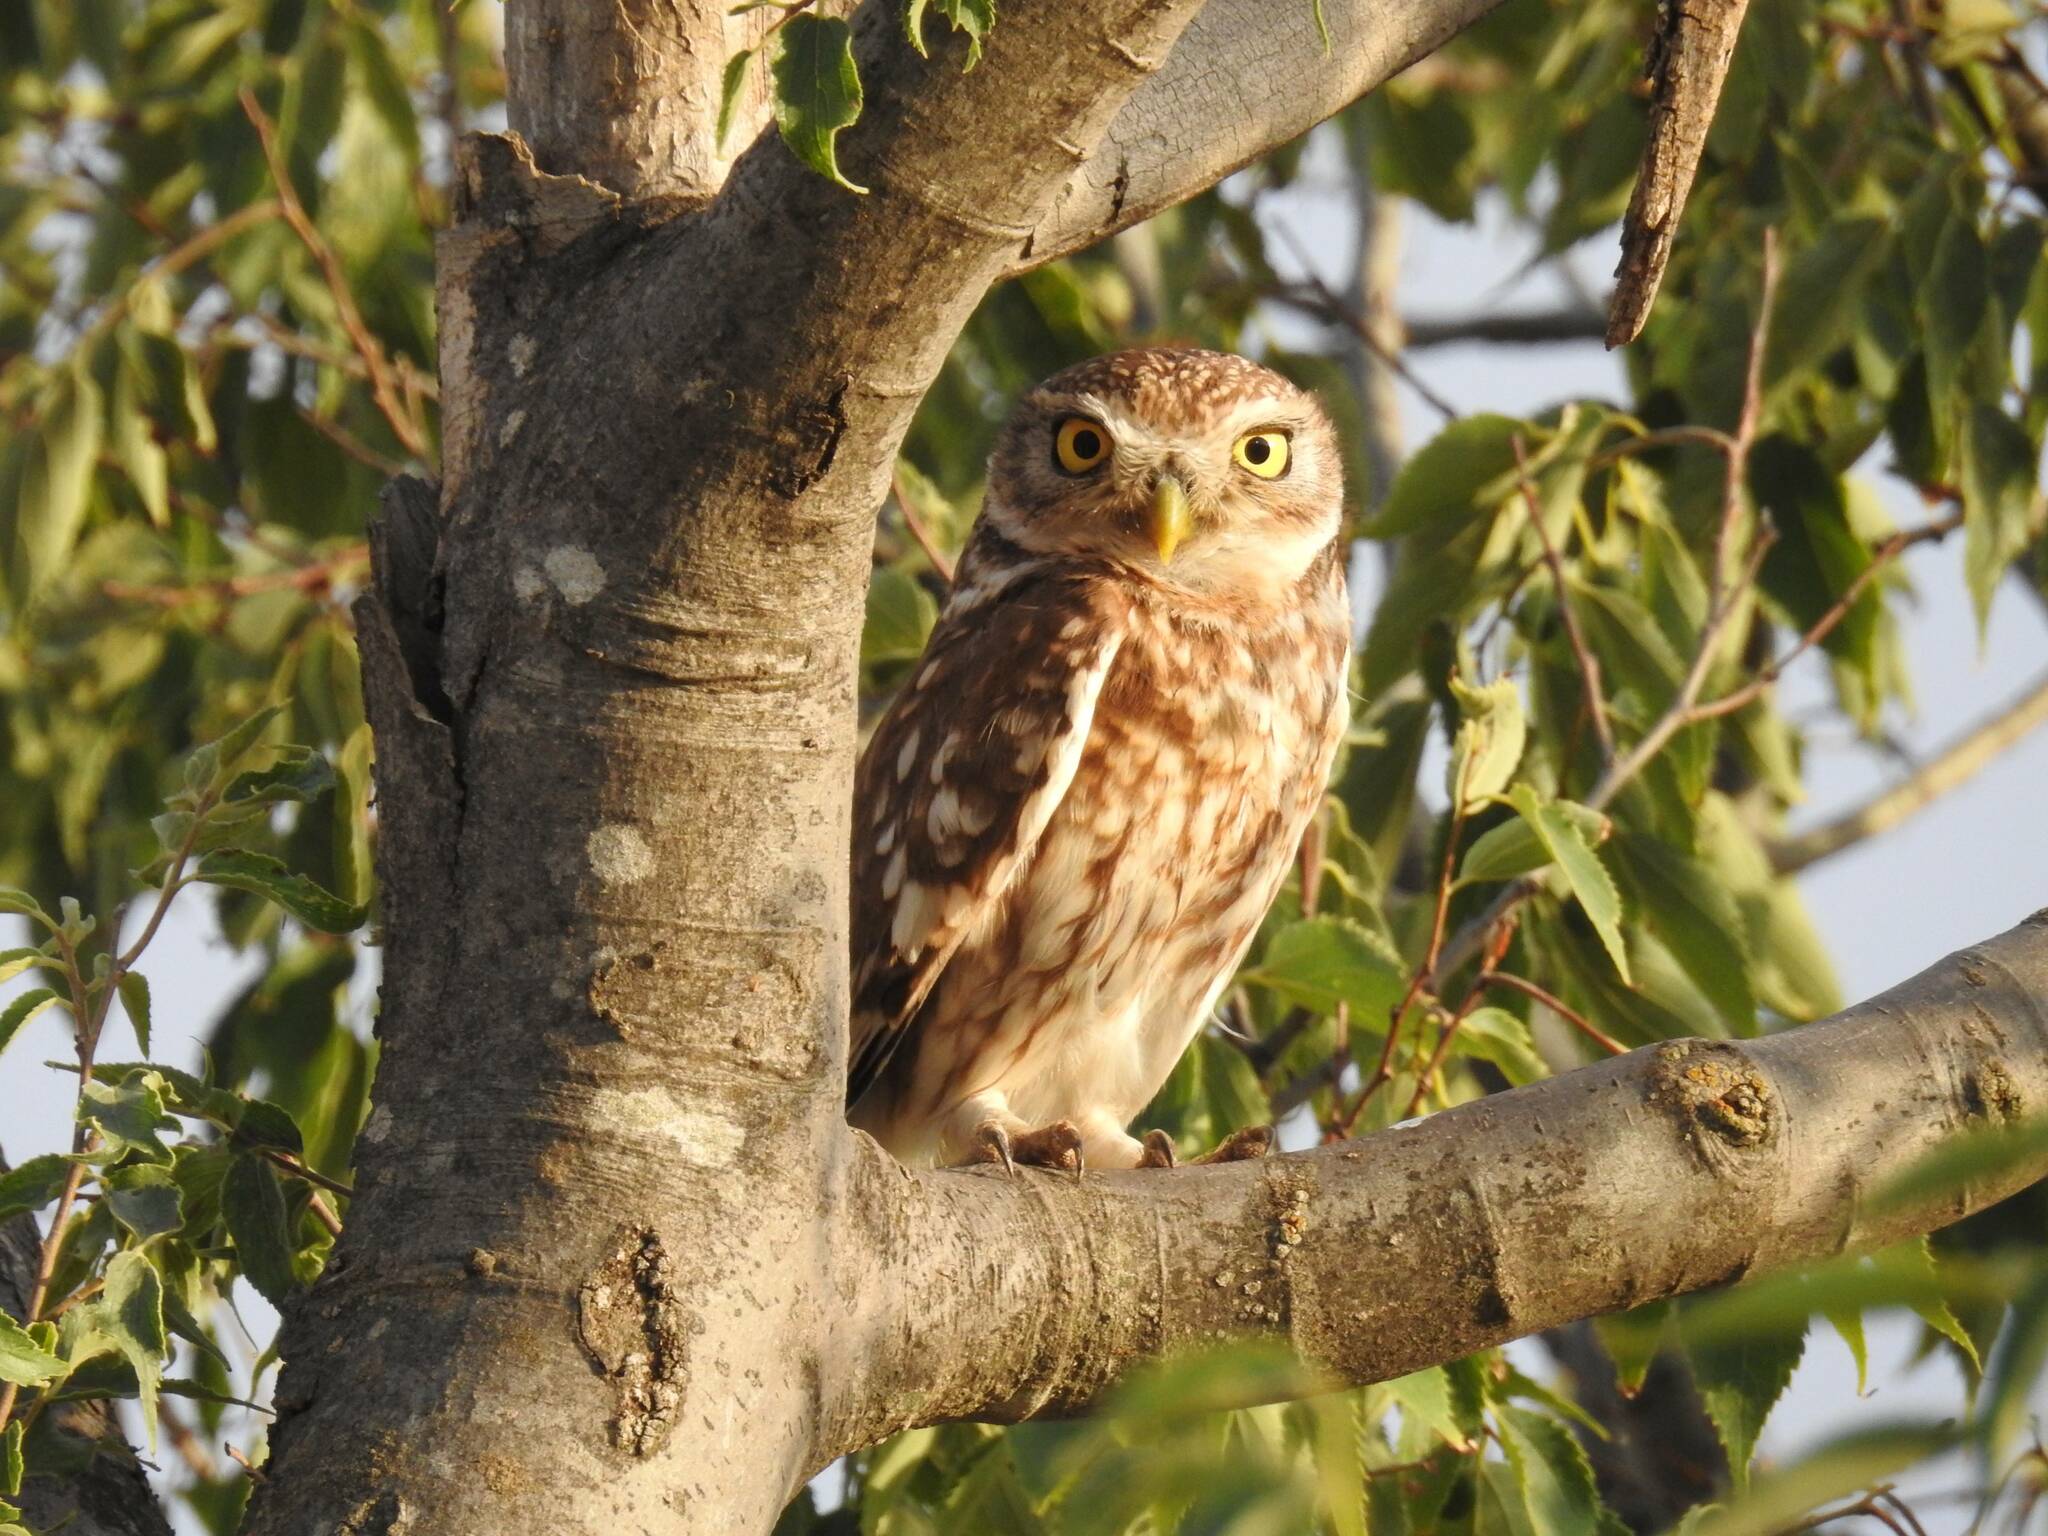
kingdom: Animalia
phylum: Chordata
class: Aves
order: Strigiformes
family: Strigidae
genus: Athene
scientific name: Athene noctua
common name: Little owl
